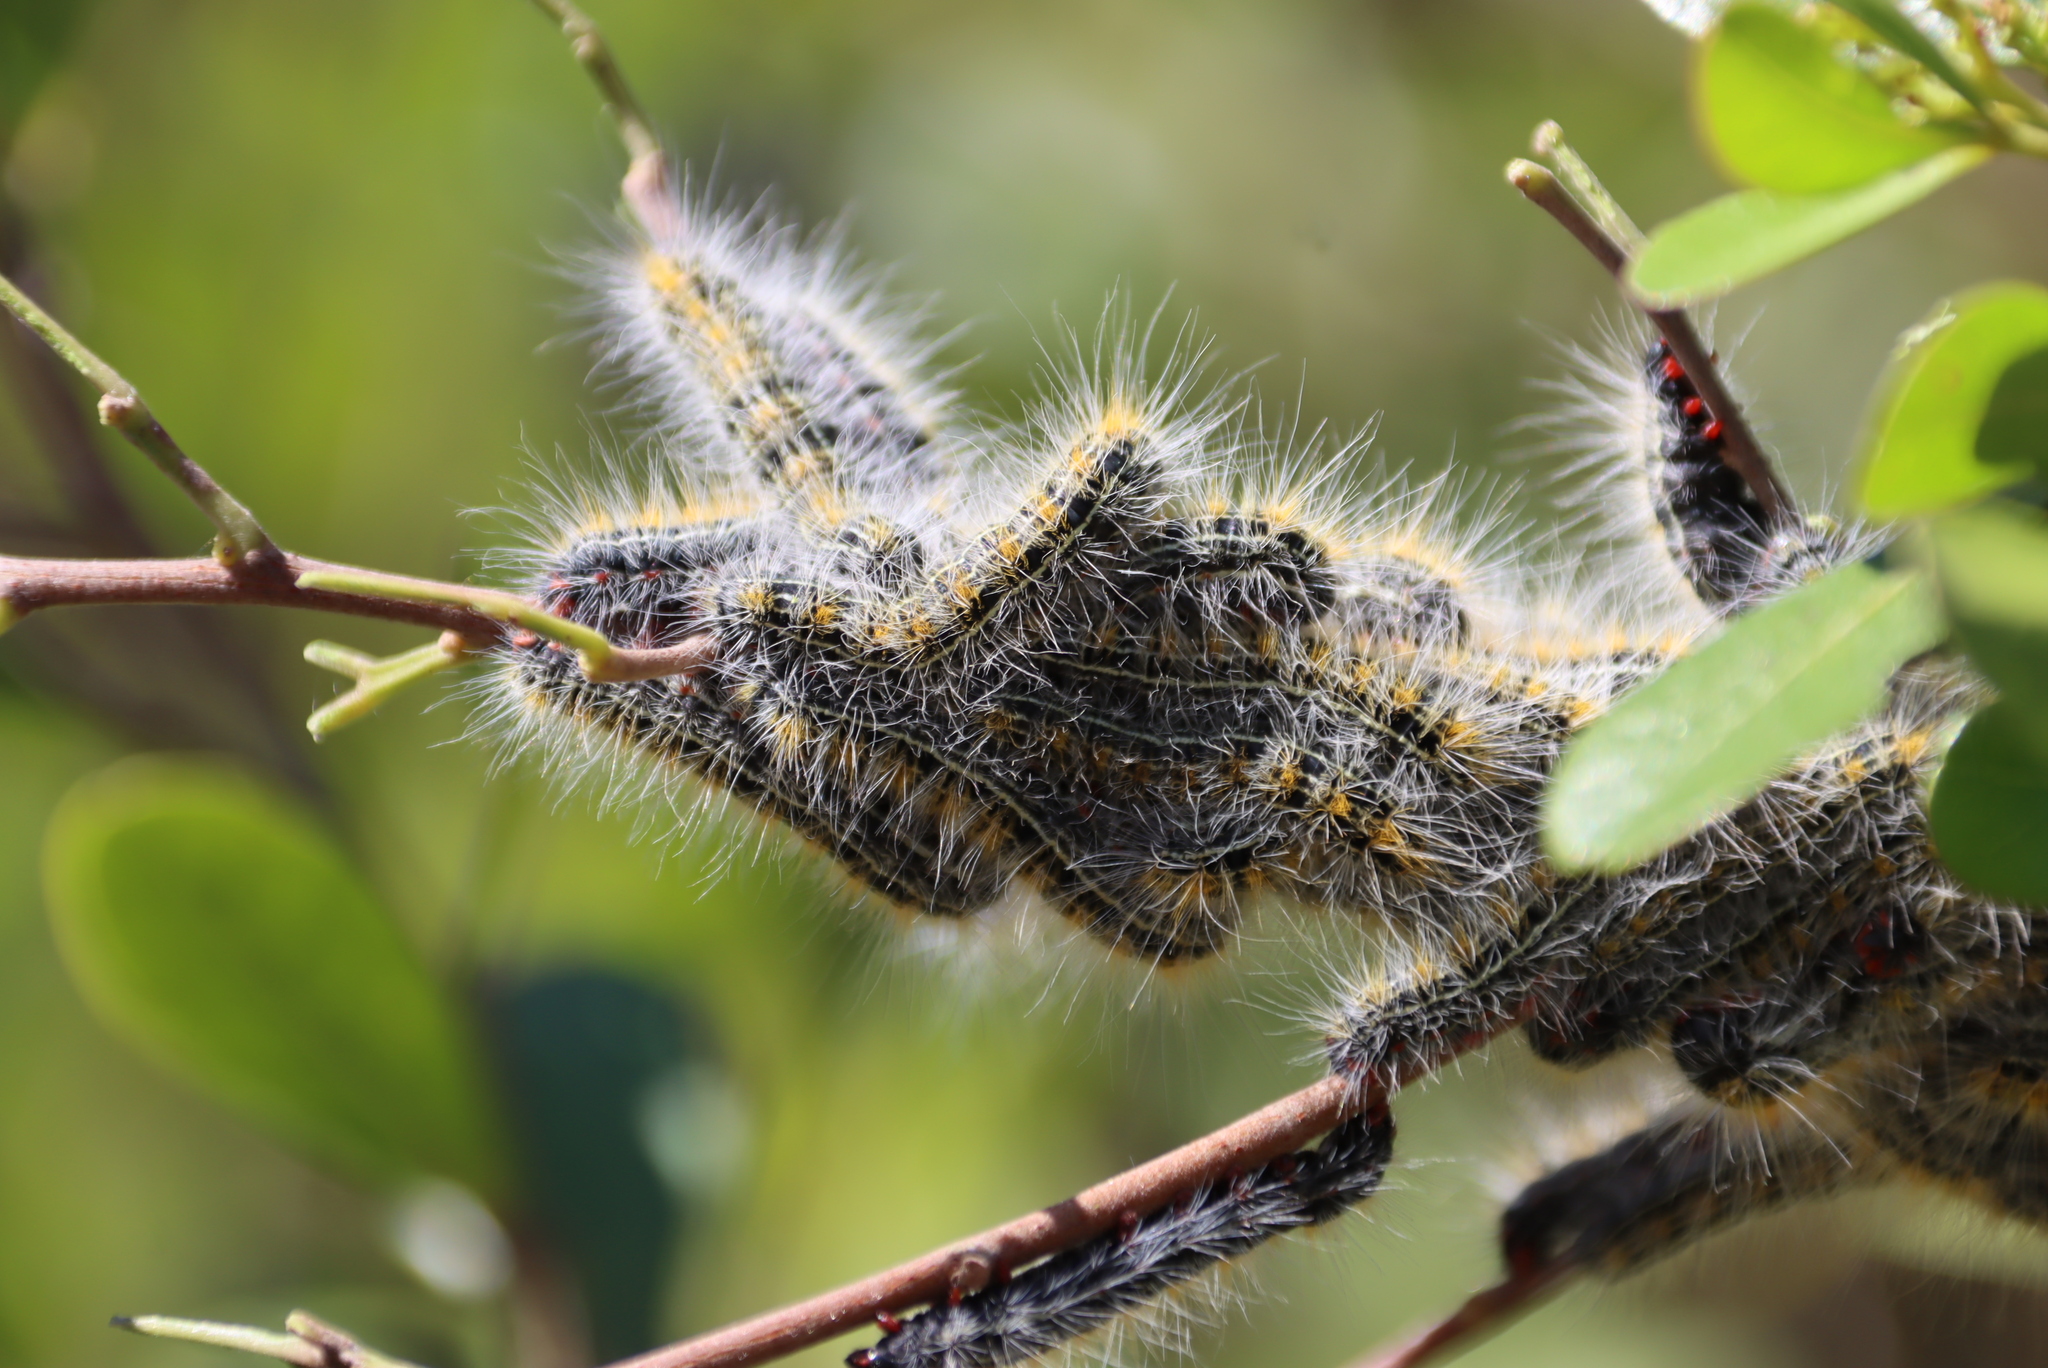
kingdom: Animalia
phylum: Arthropoda
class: Insecta
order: Lepidoptera
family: Lasiocampidae
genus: Bombycomorpha
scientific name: Bombycomorpha bifascia
